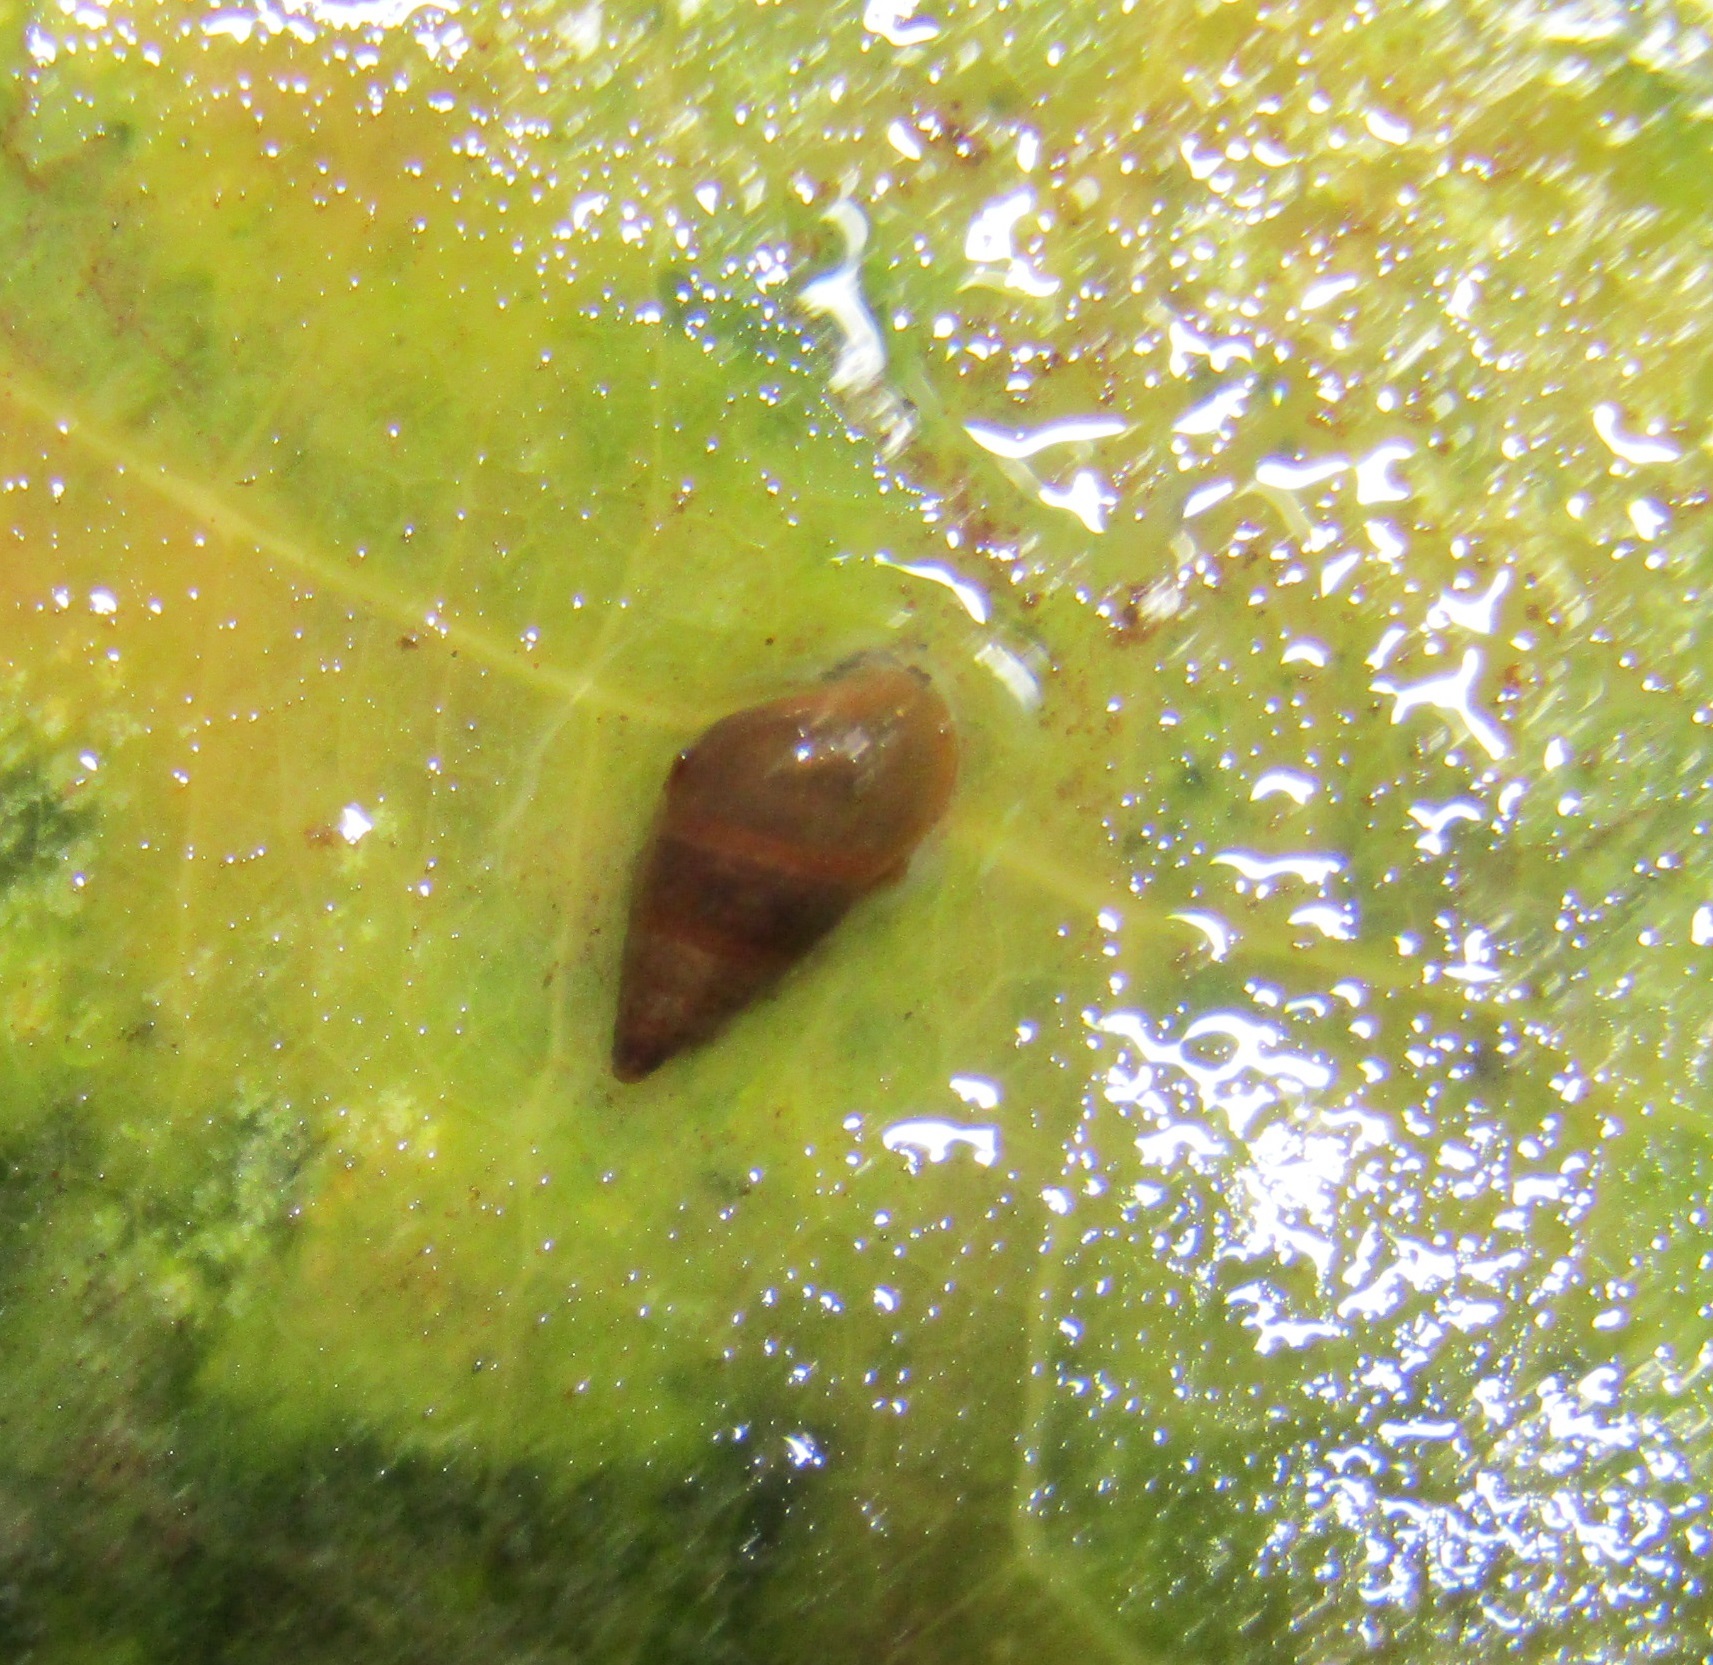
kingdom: Animalia
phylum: Mollusca
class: Gastropoda
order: Littorinimorpha
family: Tateidae
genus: Potamopyrgus
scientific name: Potamopyrgus antipodarum
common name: Jenkins' spire snail
